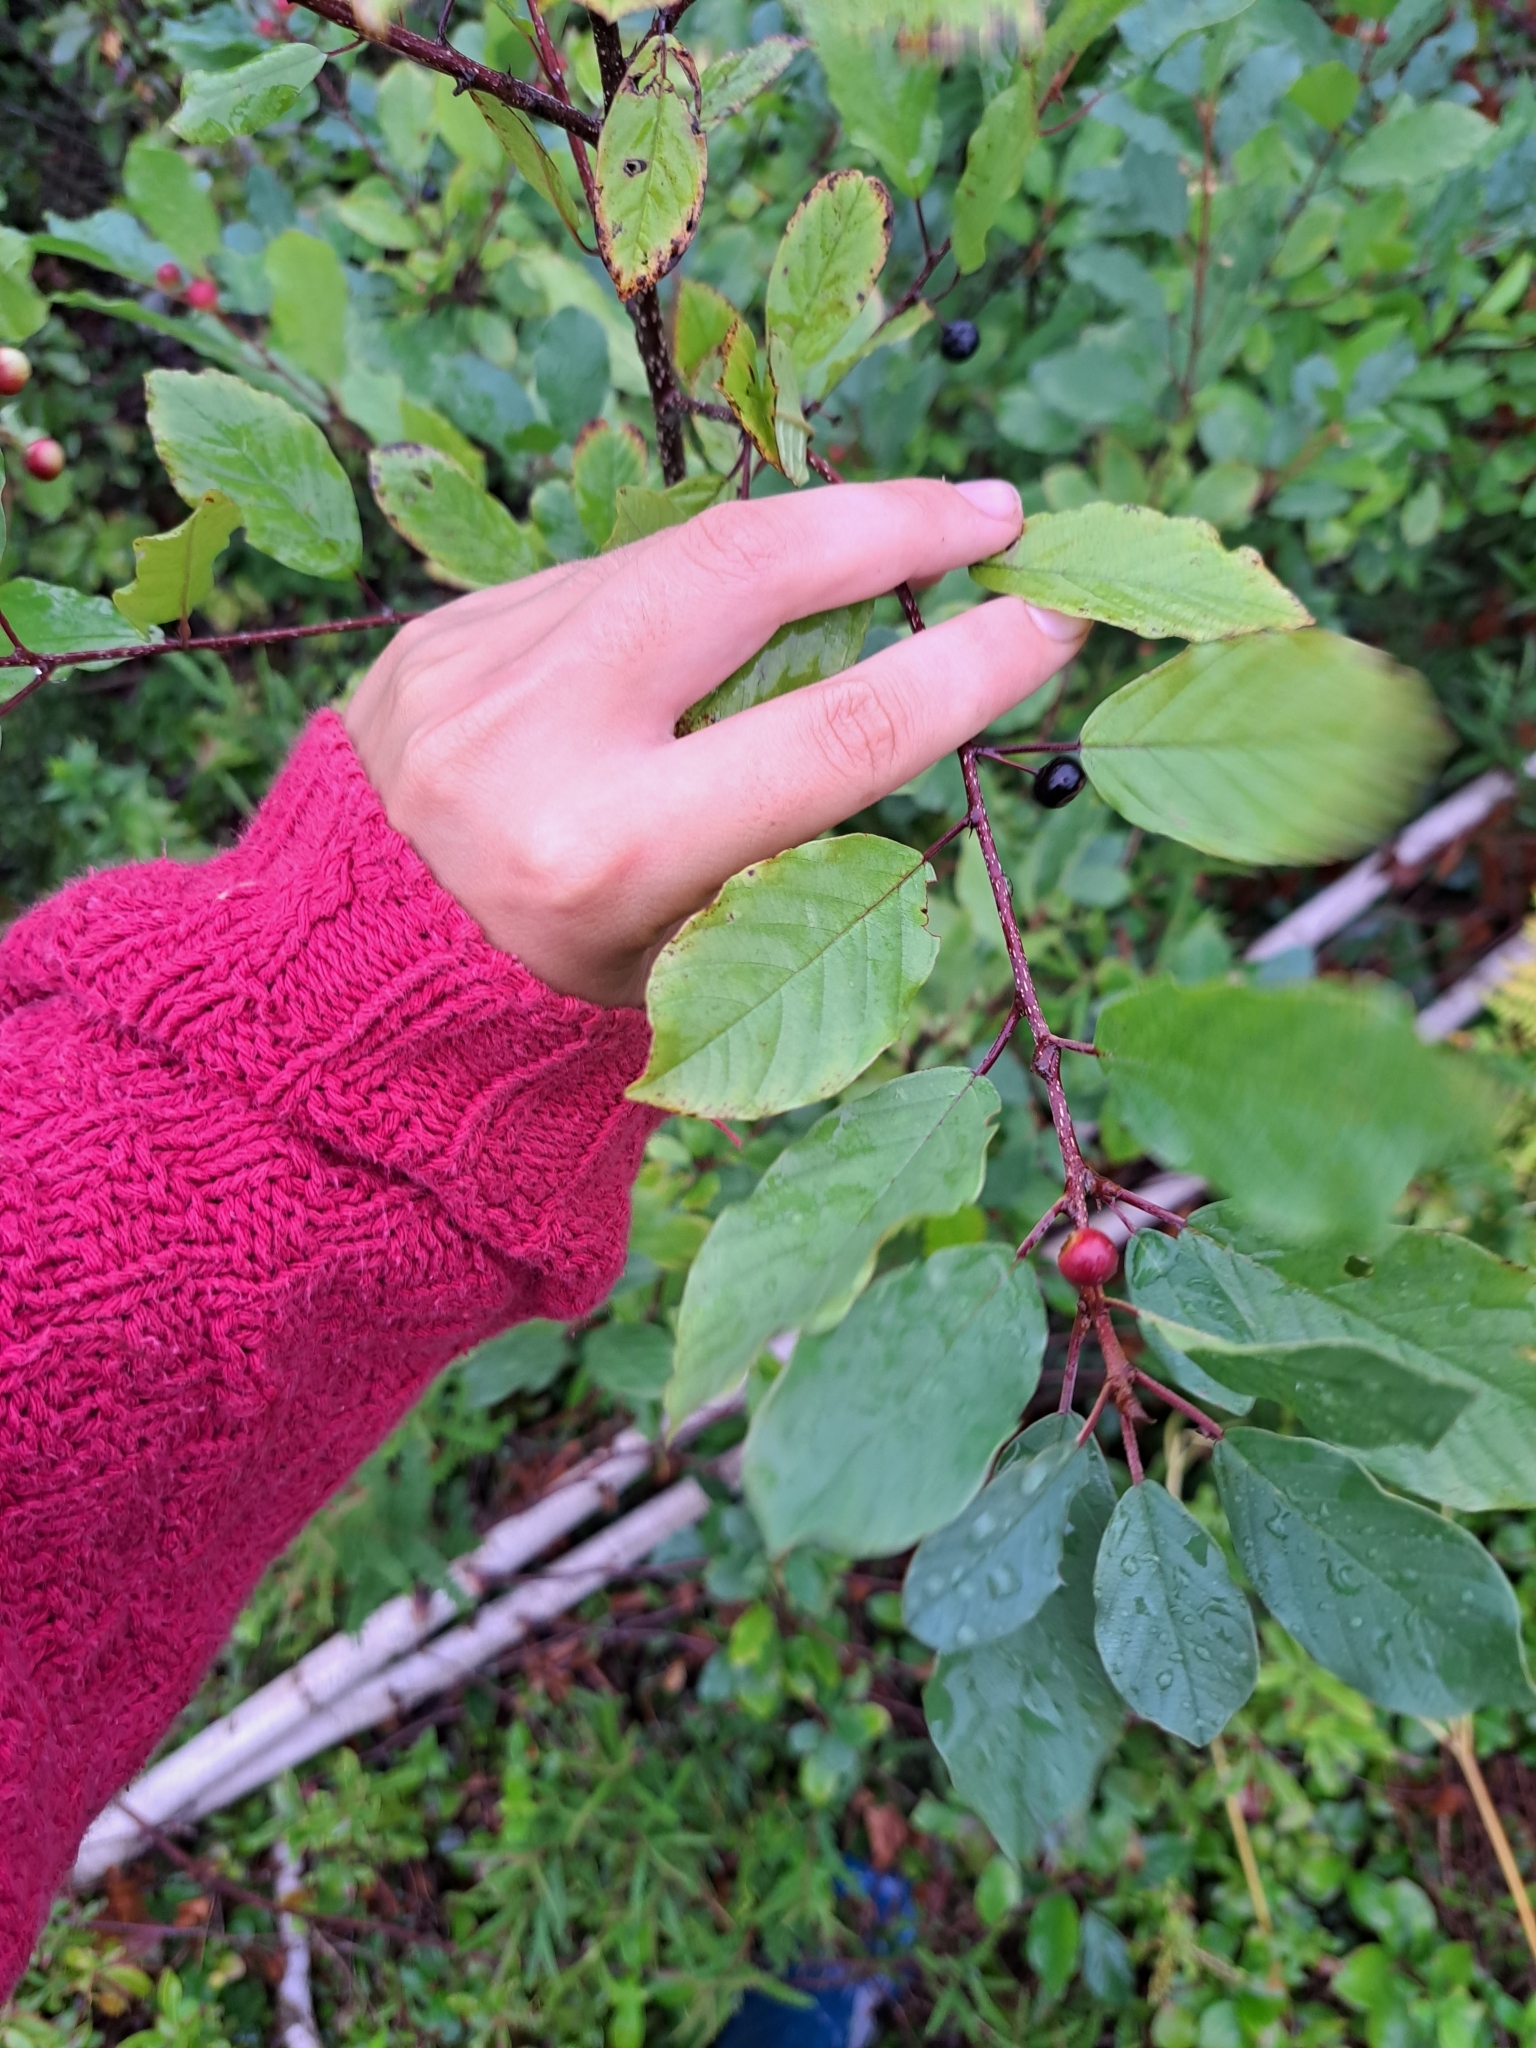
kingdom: Plantae
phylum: Tracheophyta
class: Magnoliopsida
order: Rosales
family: Rhamnaceae
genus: Frangula
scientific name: Frangula alnus
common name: Alder buckthorn
